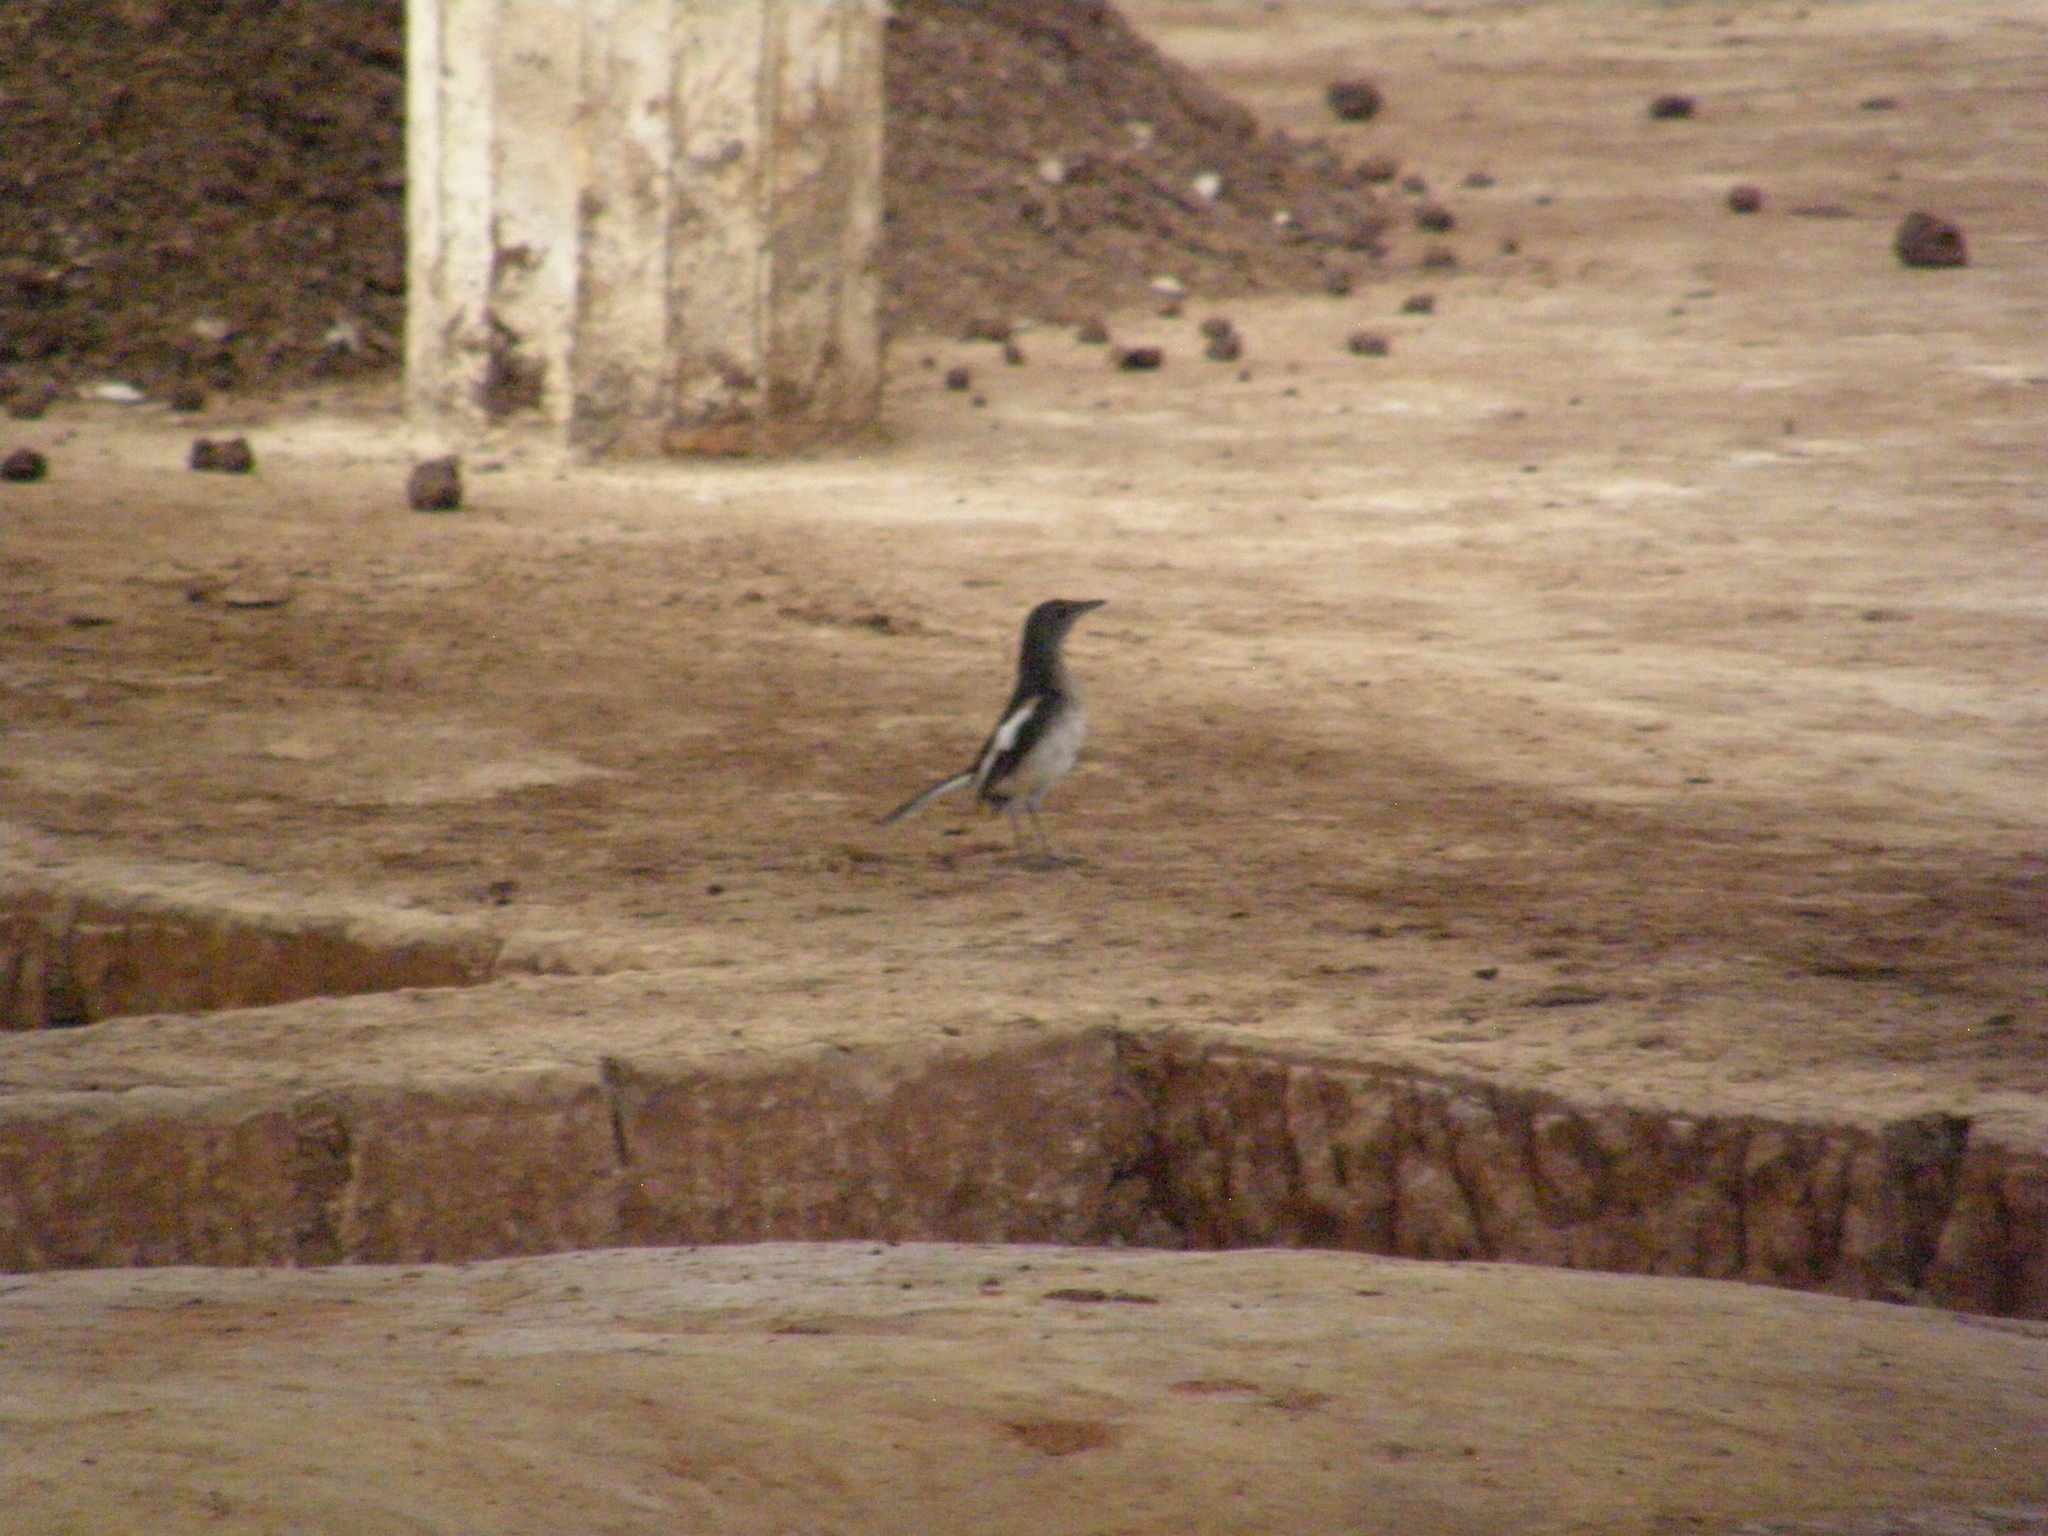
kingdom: Animalia
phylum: Chordata
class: Aves
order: Passeriformes
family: Muscicapidae
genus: Copsychus
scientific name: Copsychus saularis
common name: Oriental magpie-robin
